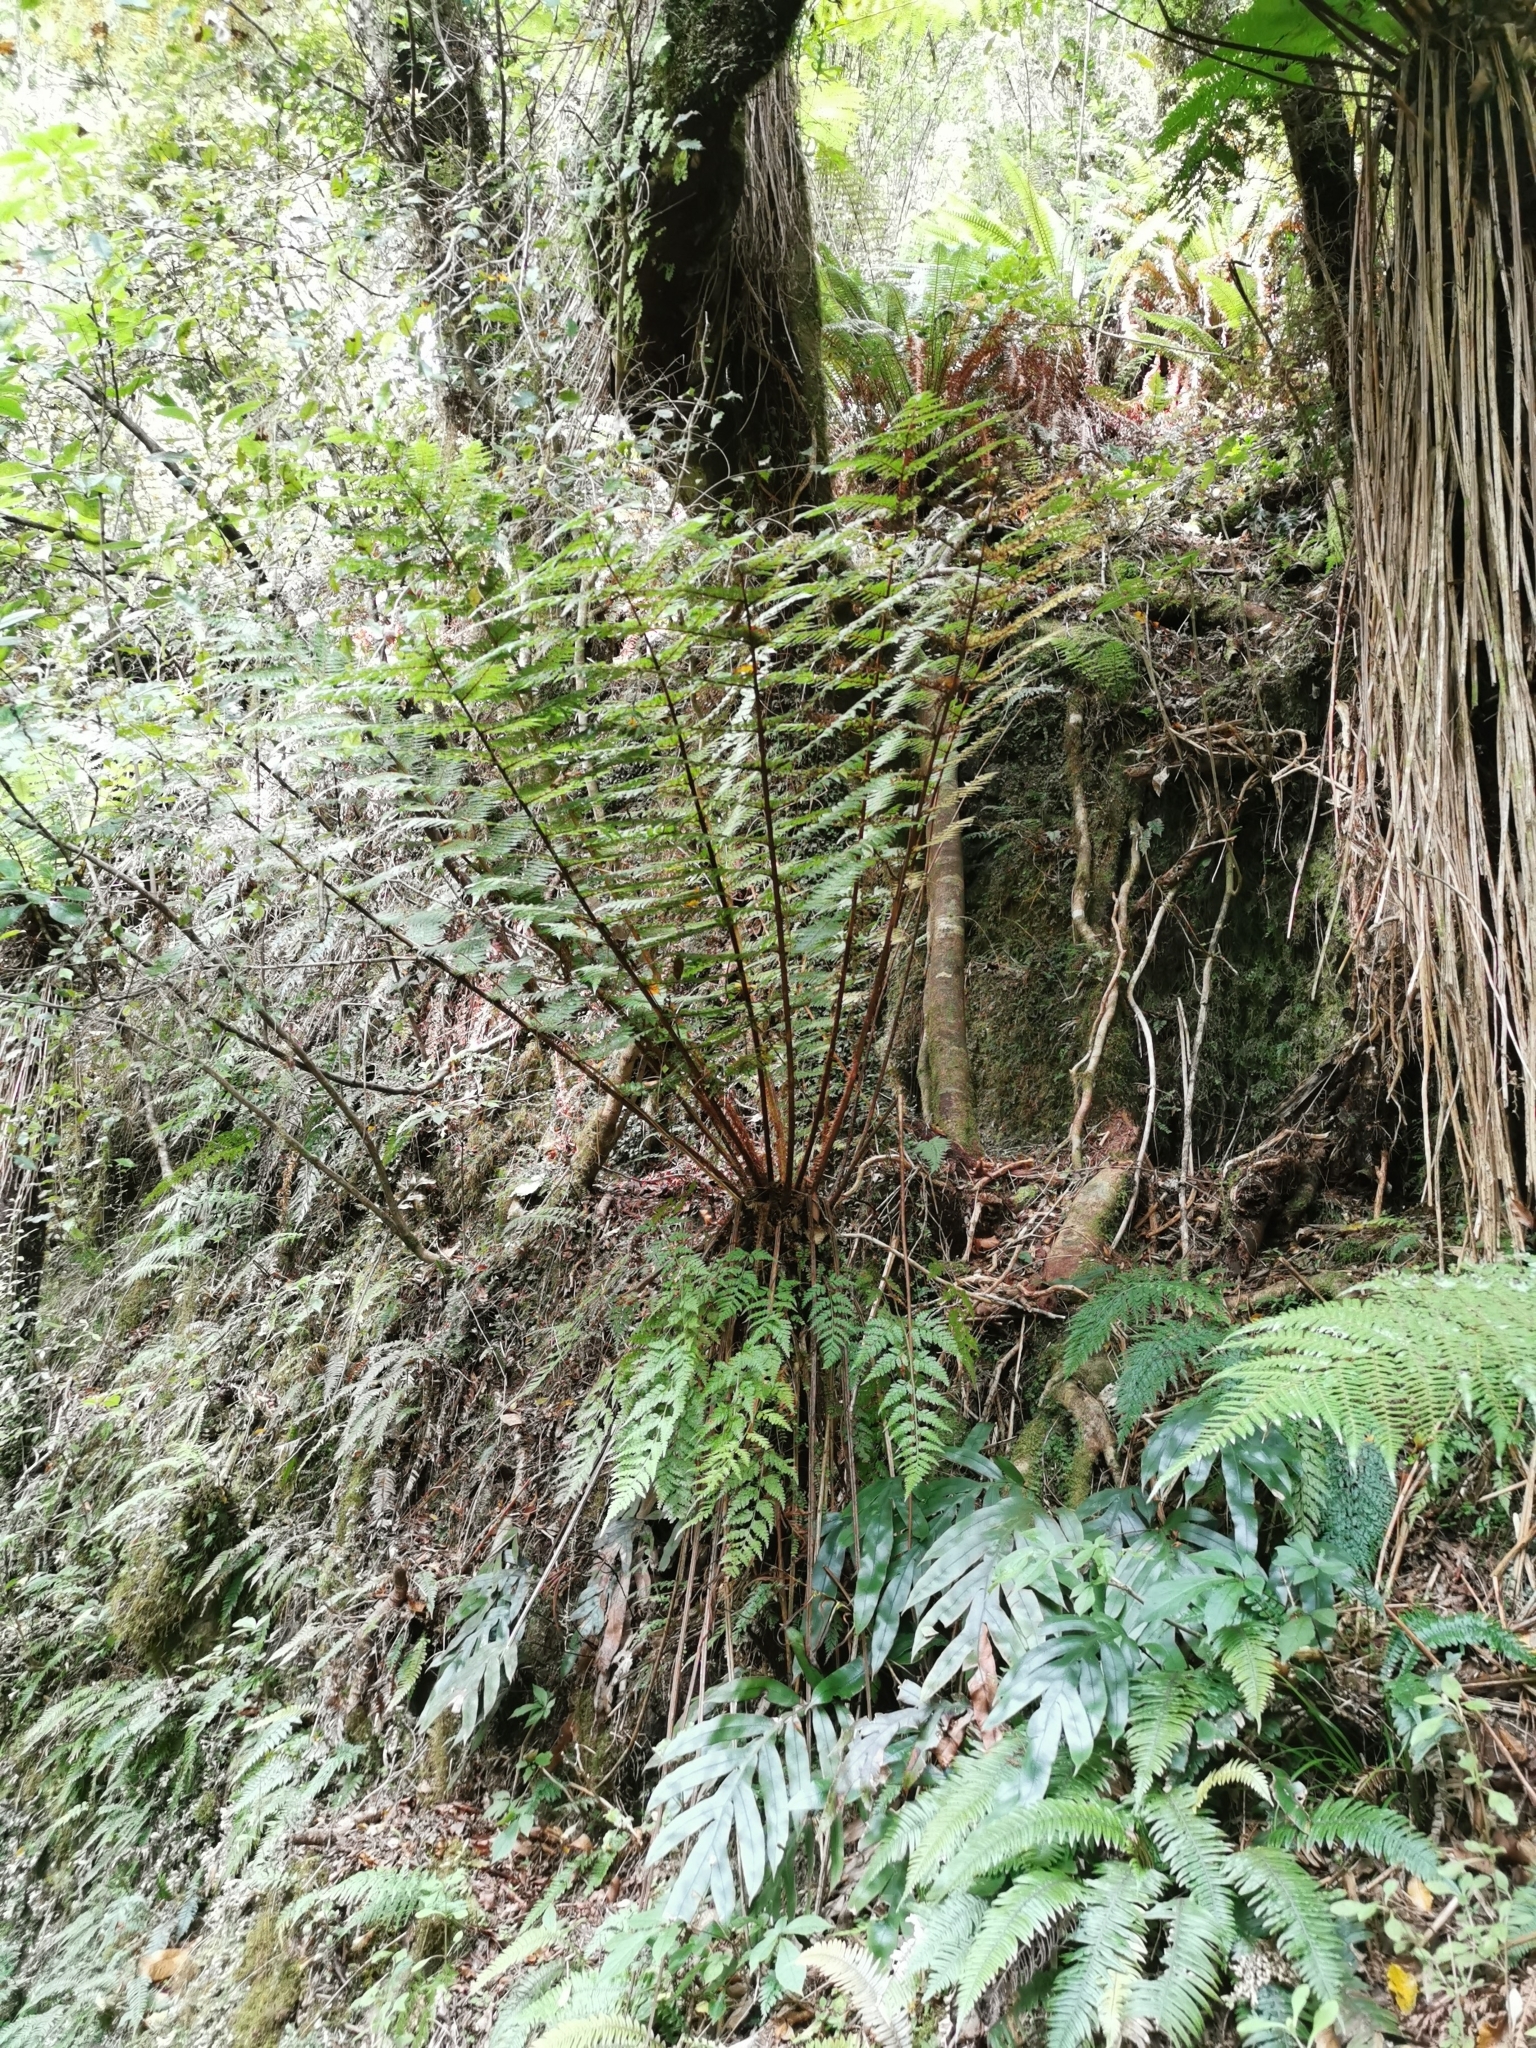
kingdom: Plantae
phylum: Tracheophyta
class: Polypodiopsida
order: Polypodiales
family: Dryopteridaceae
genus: Rumohra
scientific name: Rumohra adiantiformis
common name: Leather fern
